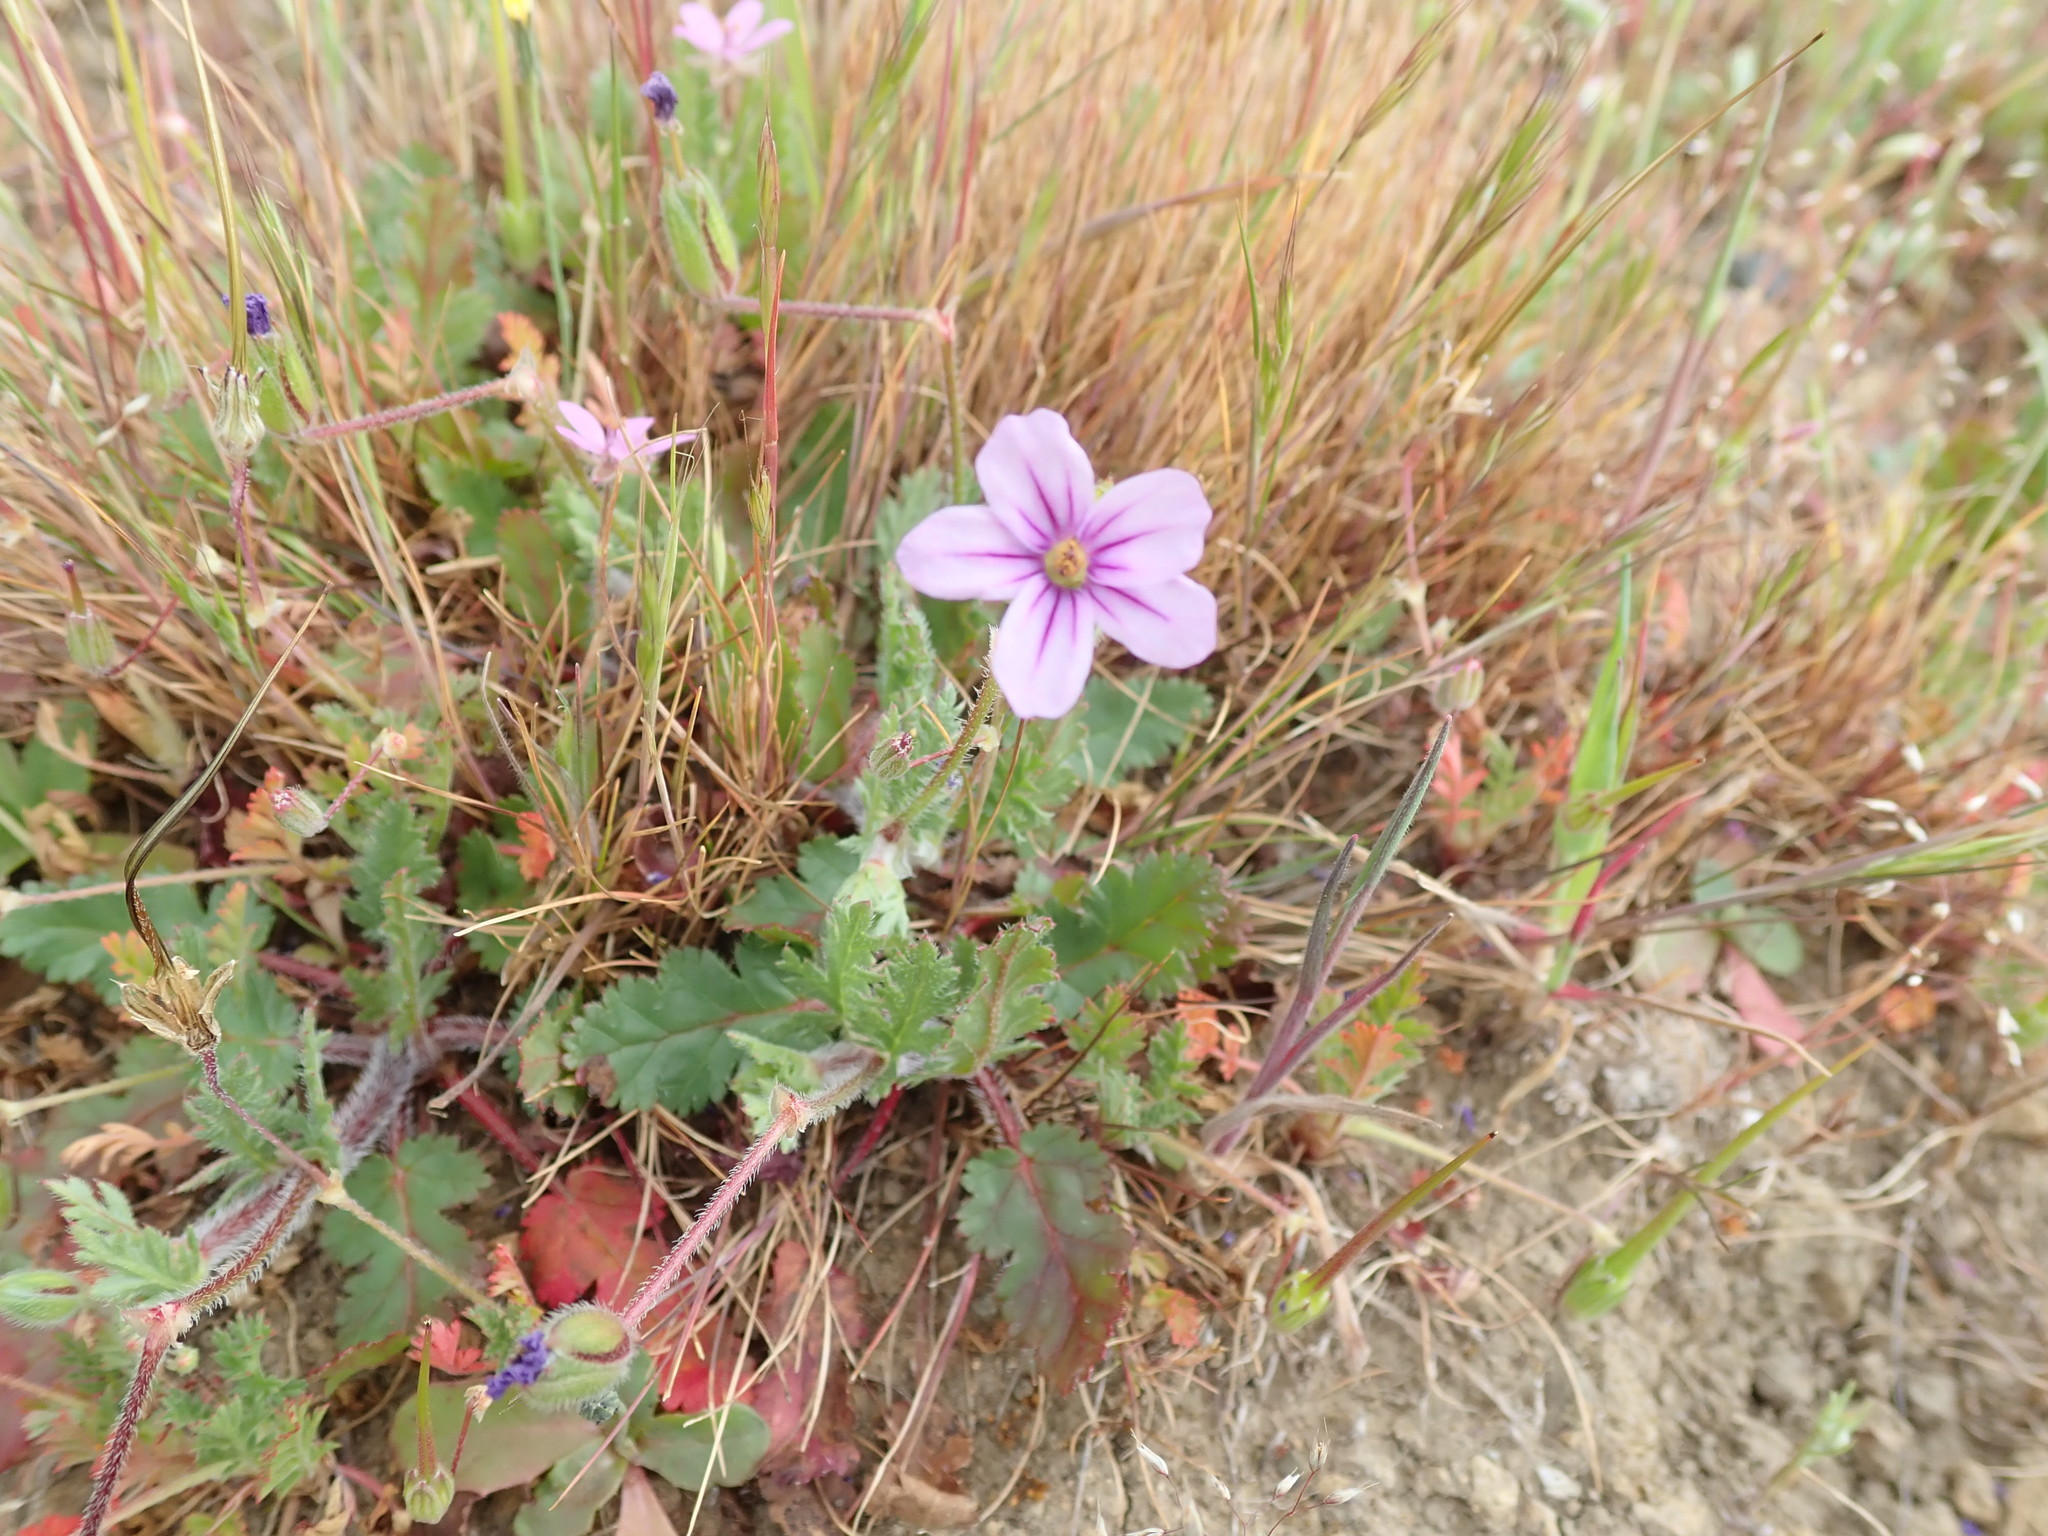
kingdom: Plantae
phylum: Tracheophyta
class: Magnoliopsida
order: Geraniales
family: Geraniaceae
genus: Erodium
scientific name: Erodium botrys
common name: Mediterranean stork's-bill
